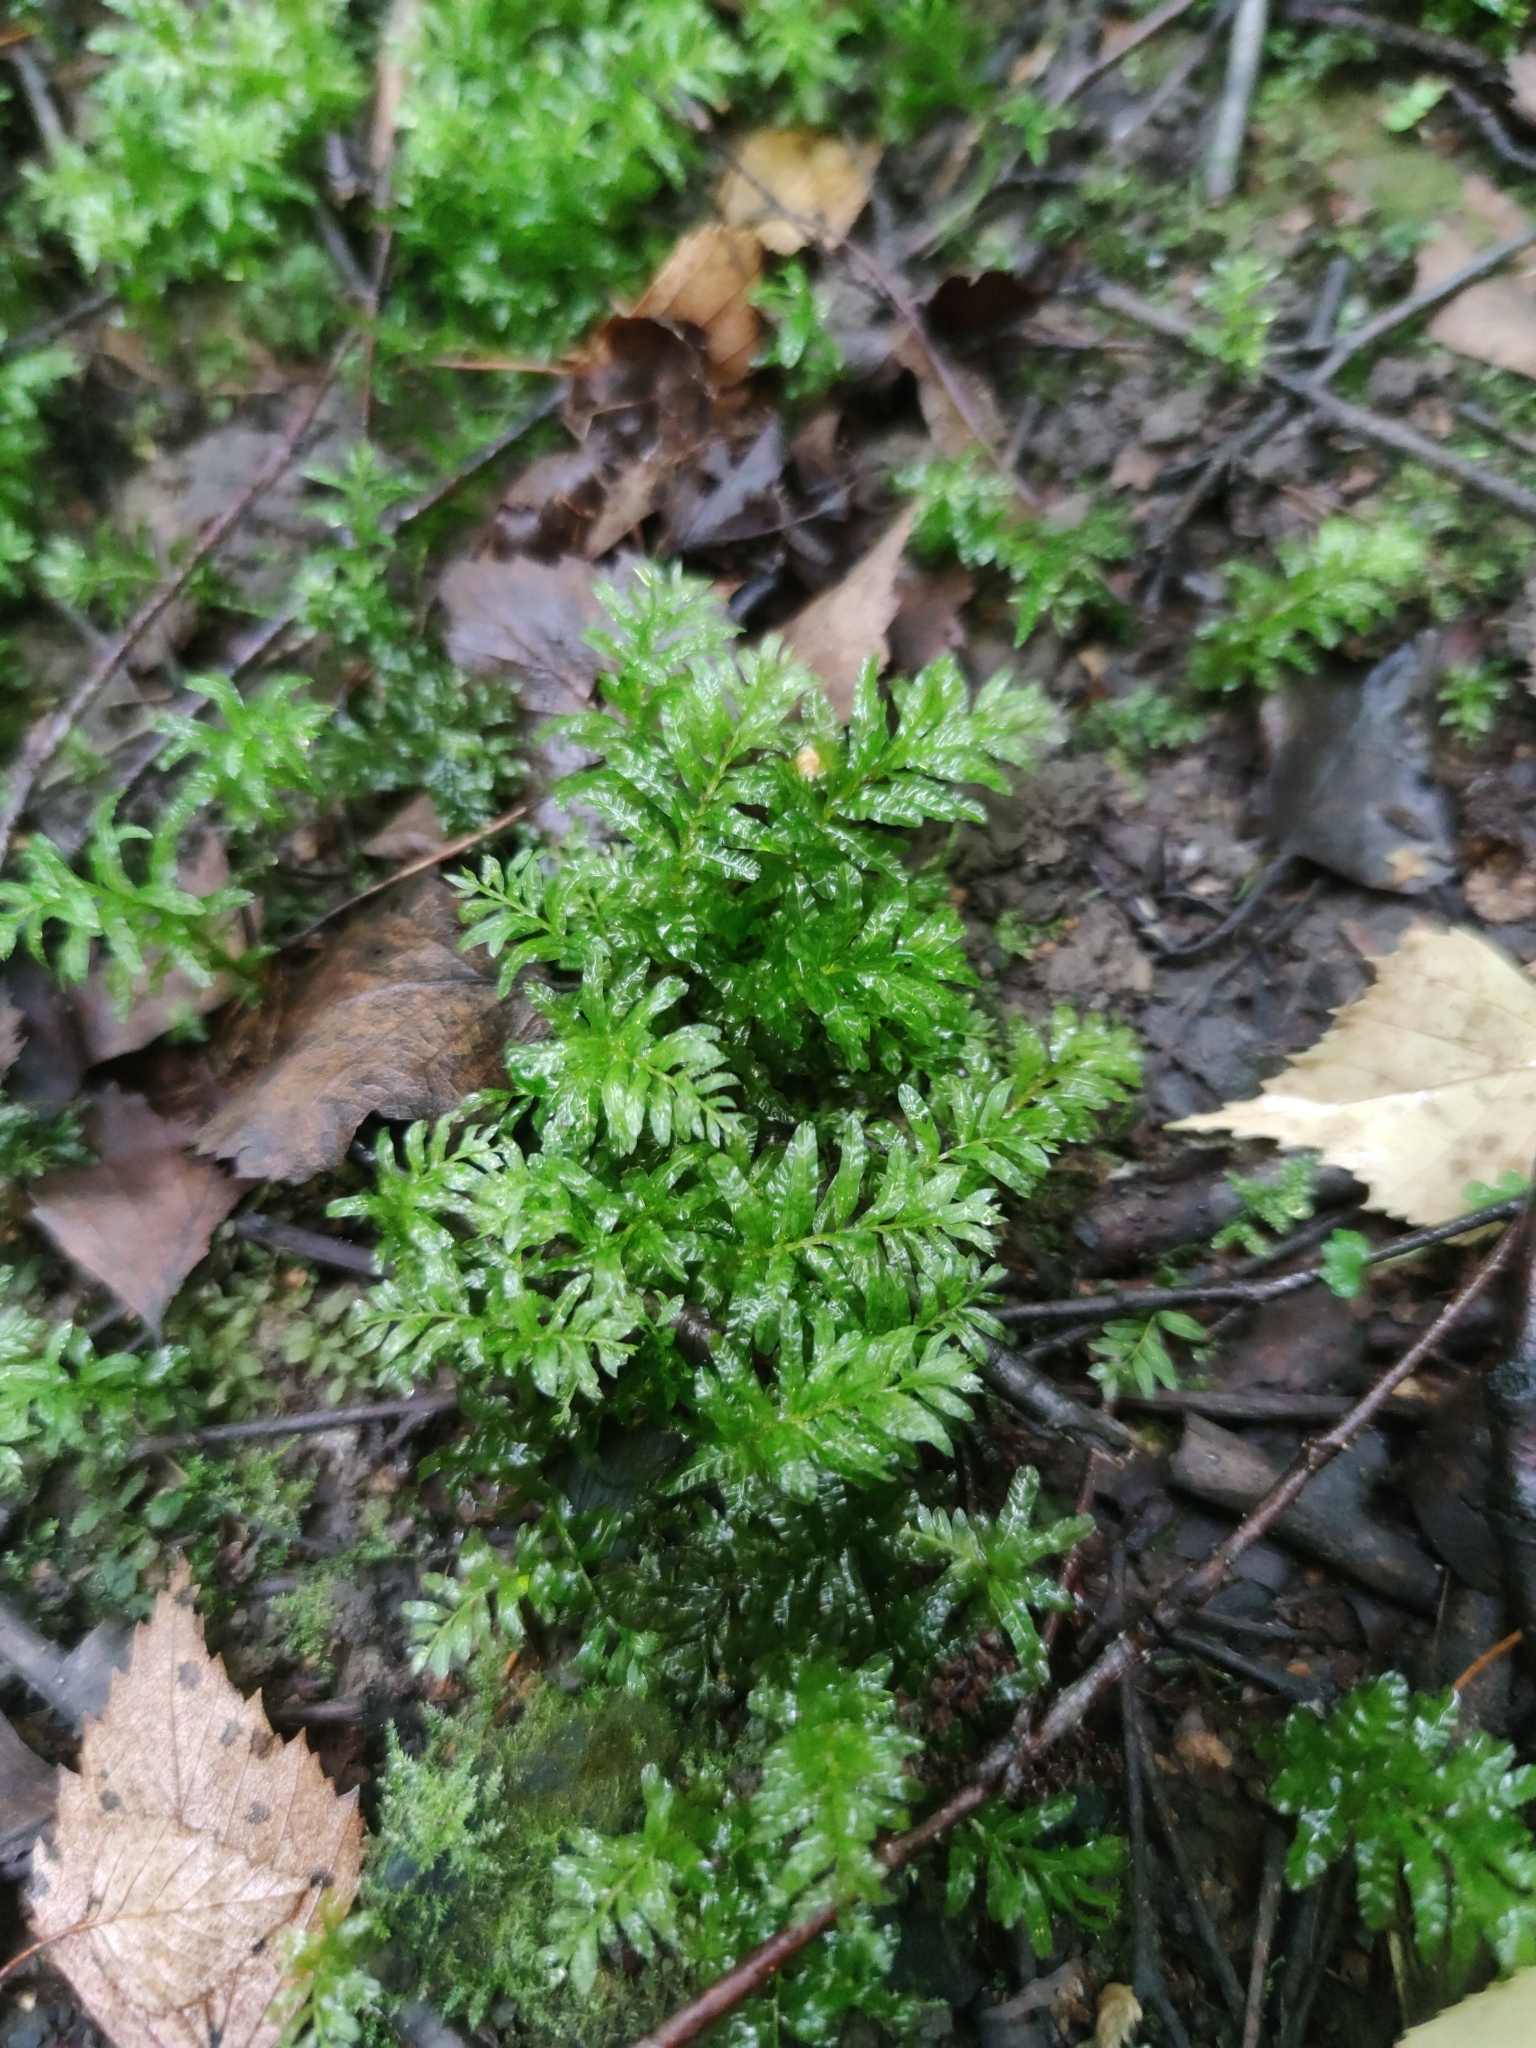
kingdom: Plantae
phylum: Bryophyta
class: Bryopsida
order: Bryales
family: Mniaceae
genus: Plagiomnium
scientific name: Plagiomnium undulatum
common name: Hart's-tongue thyme-moss
